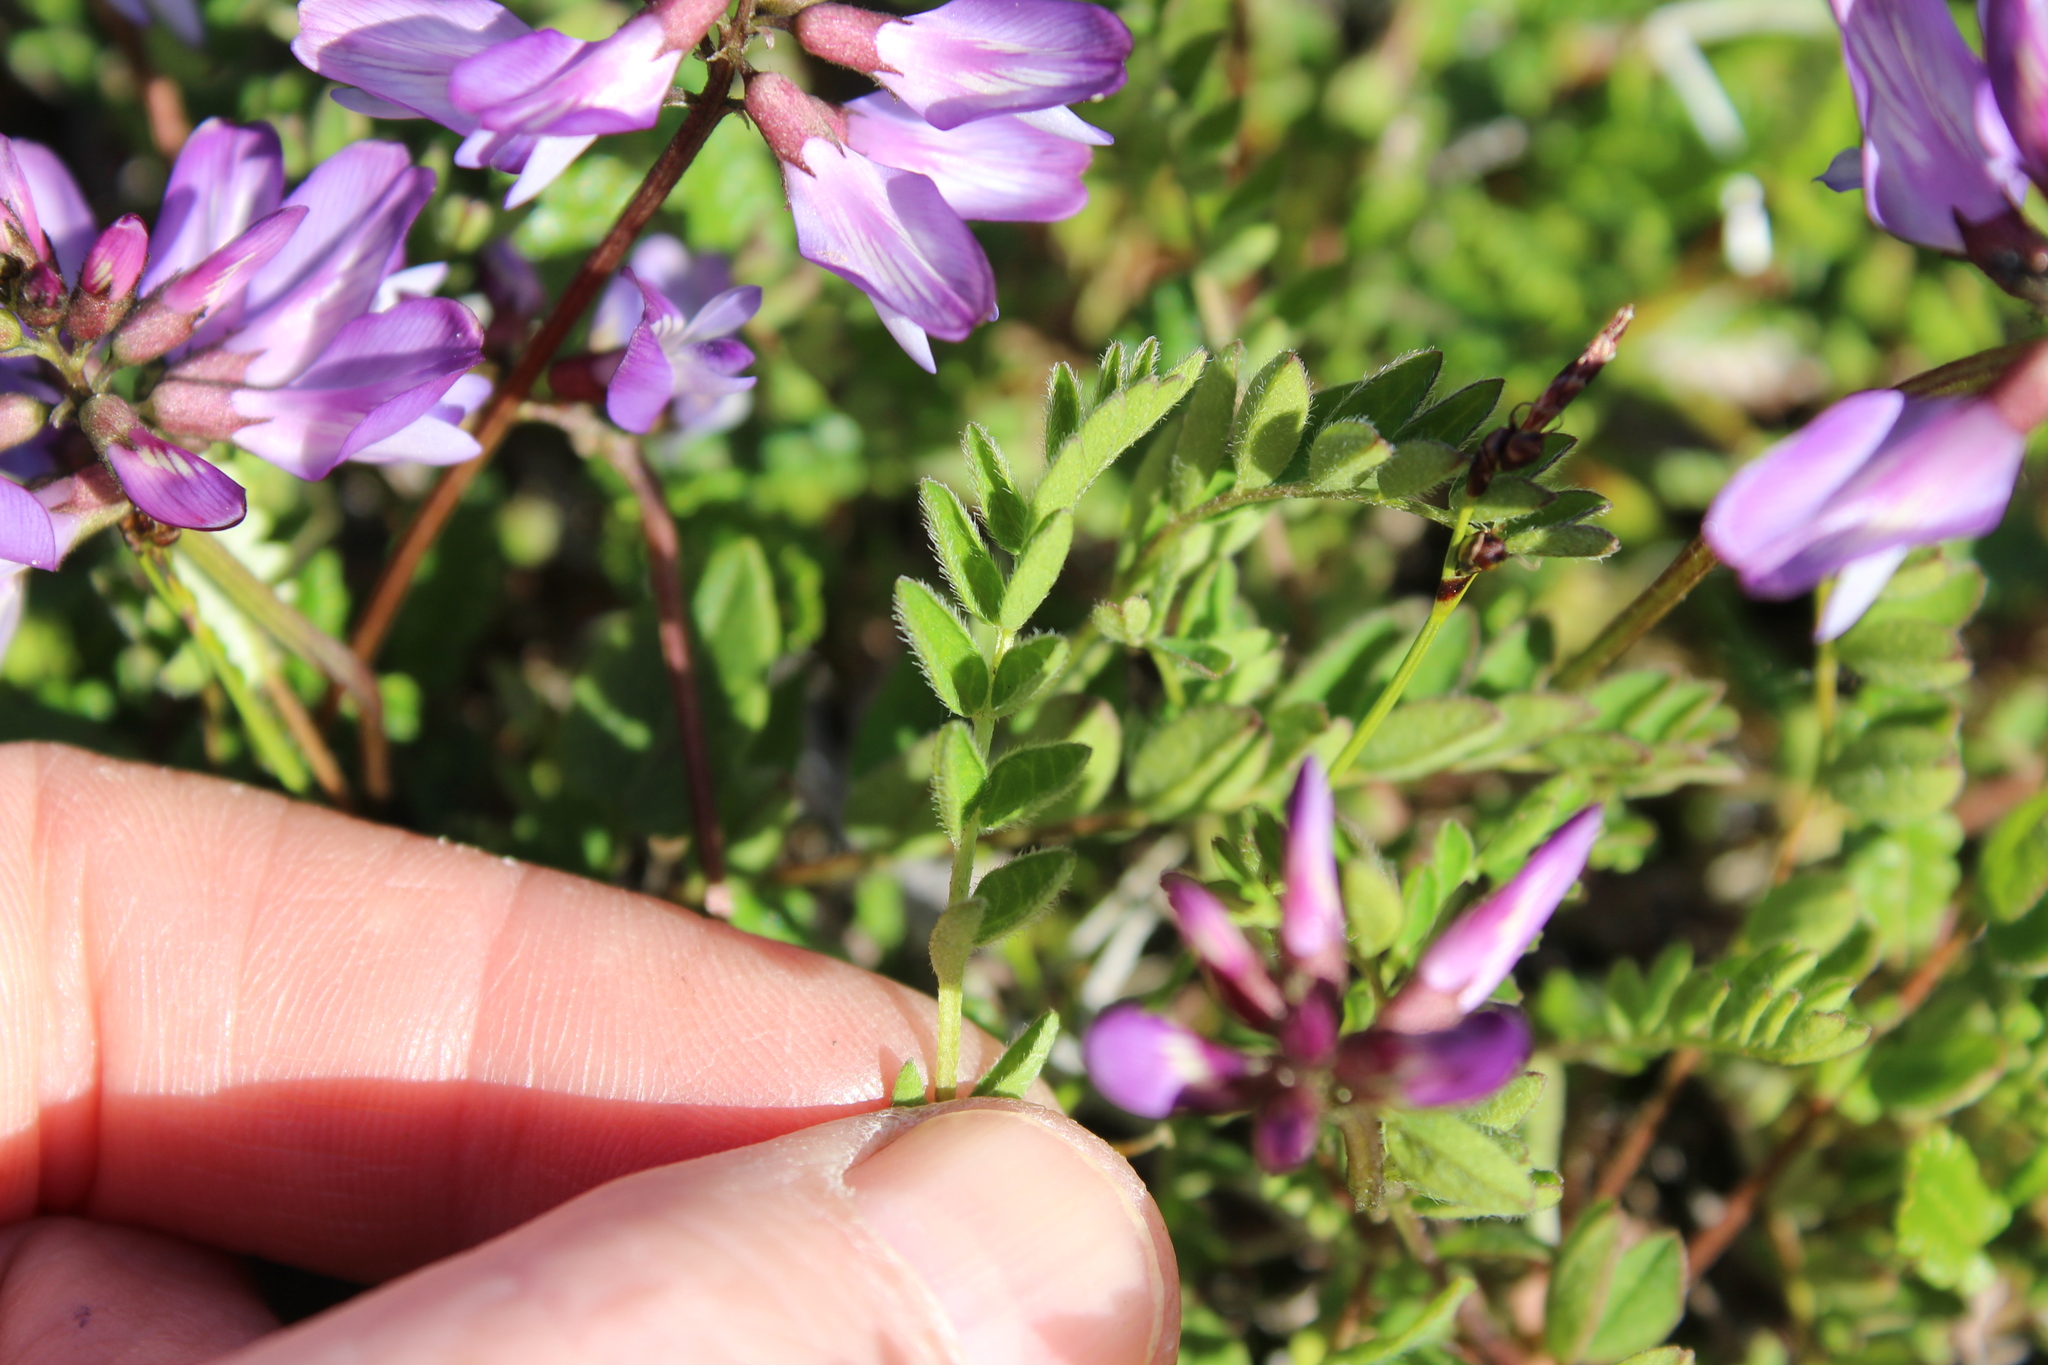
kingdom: Plantae
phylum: Tracheophyta
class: Magnoliopsida
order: Fabales
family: Fabaceae
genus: Astragalus
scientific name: Astragalus alpinus
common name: Alpine milk-vetch
